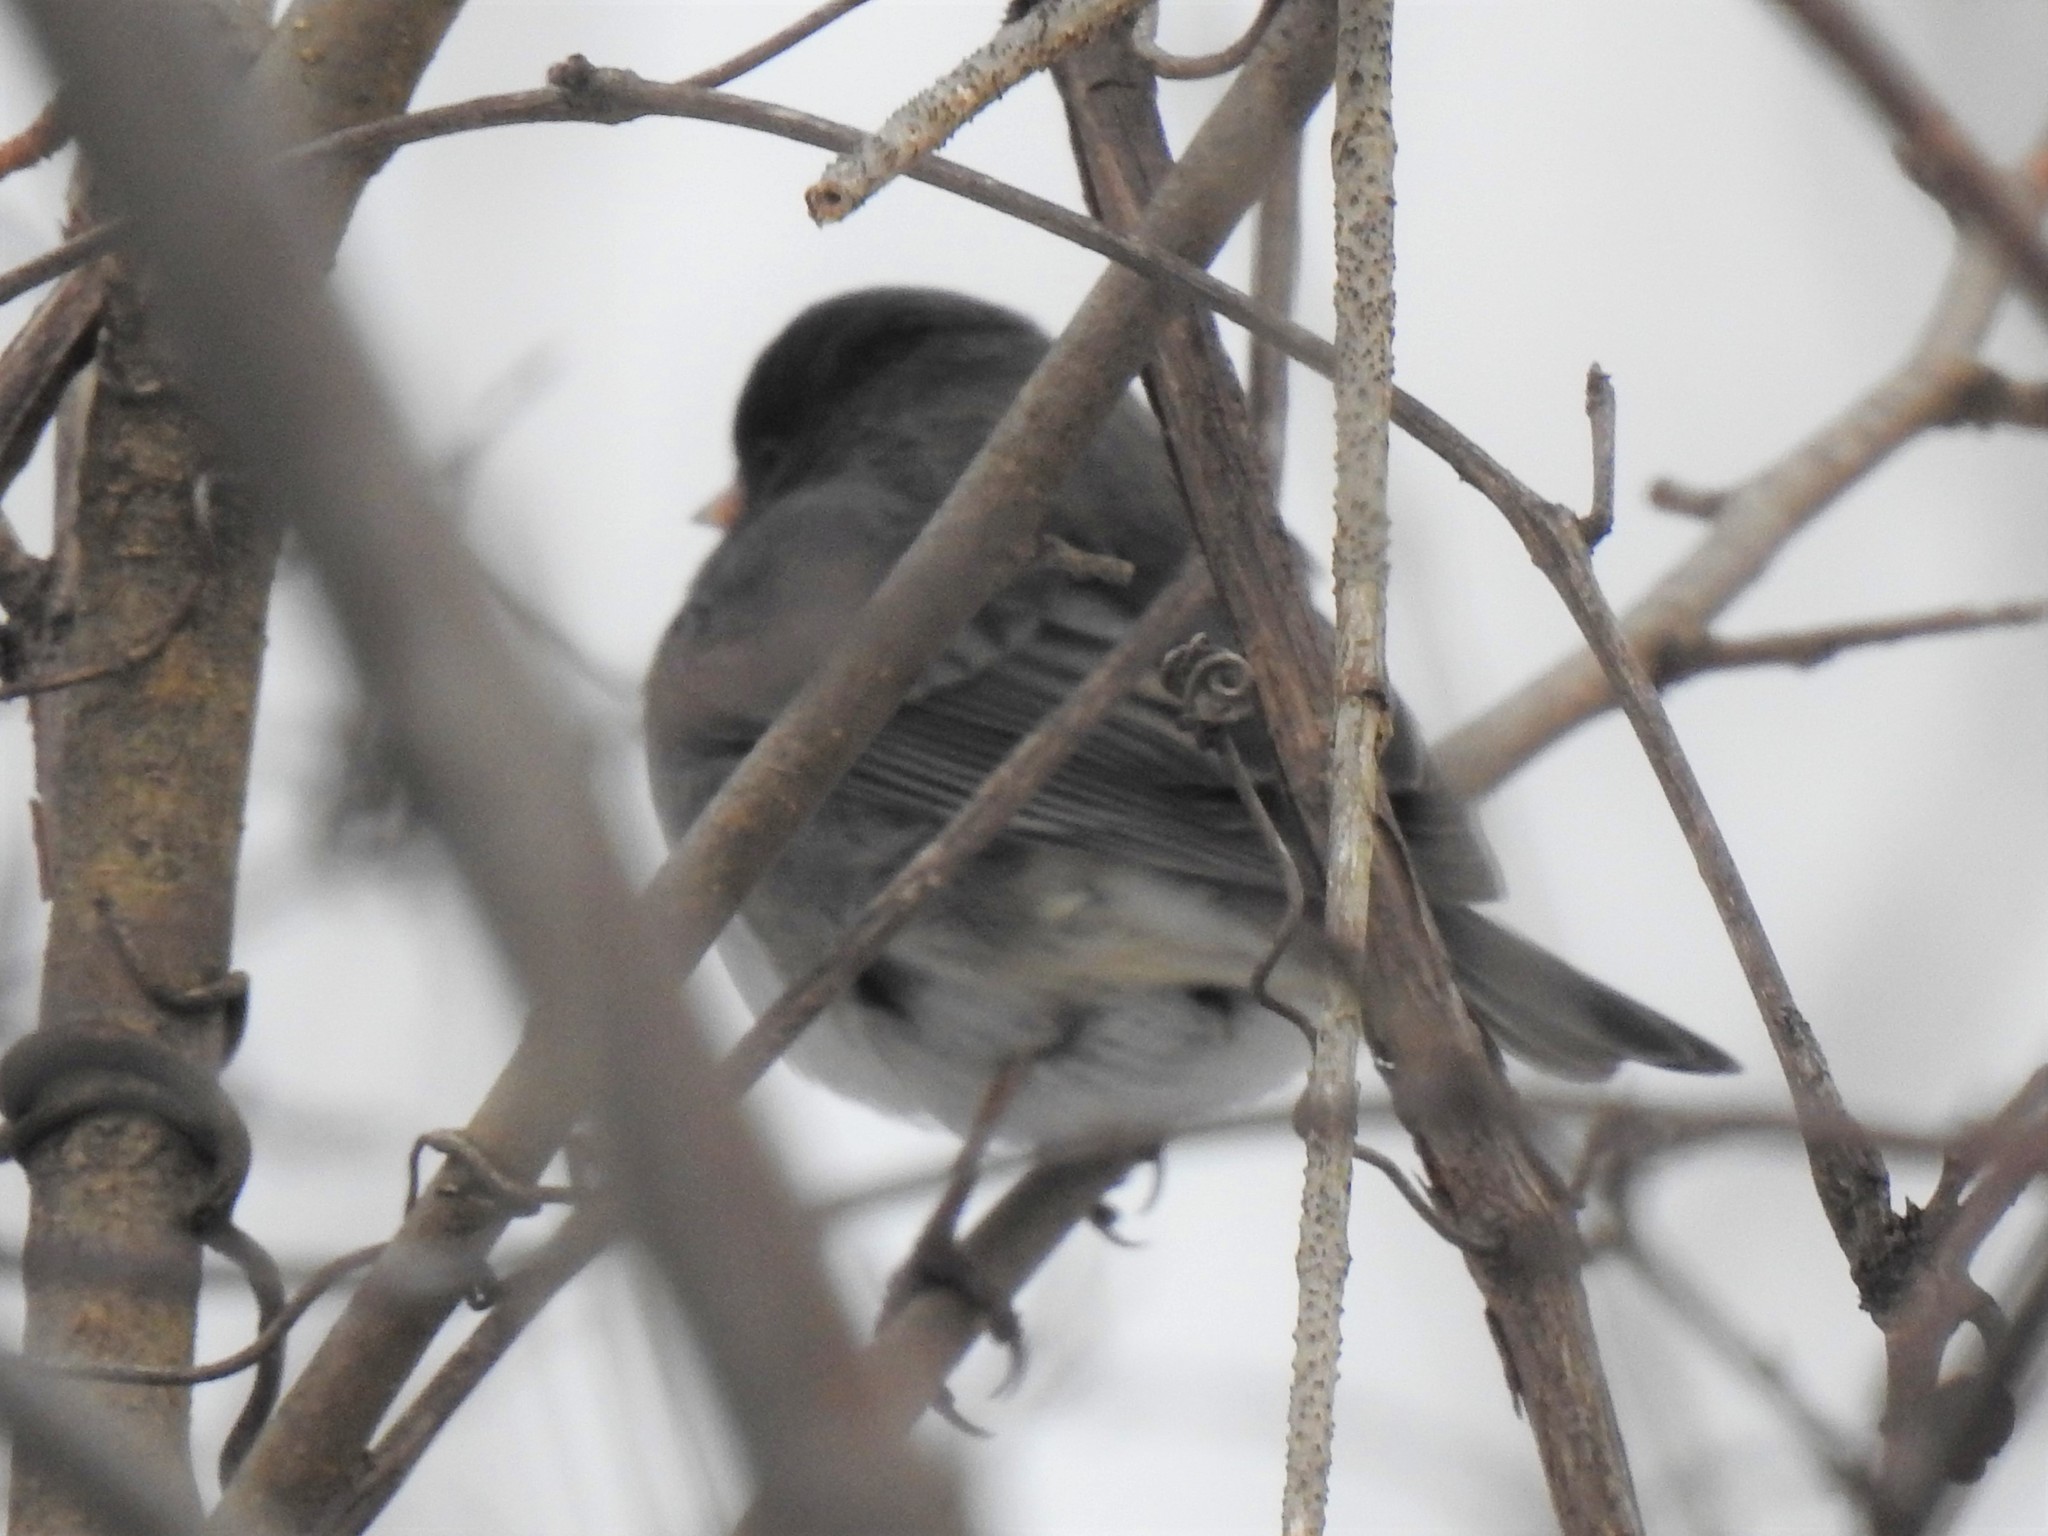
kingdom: Animalia
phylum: Chordata
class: Aves
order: Passeriformes
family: Passerellidae
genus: Junco
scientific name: Junco hyemalis
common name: Dark-eyed junco
